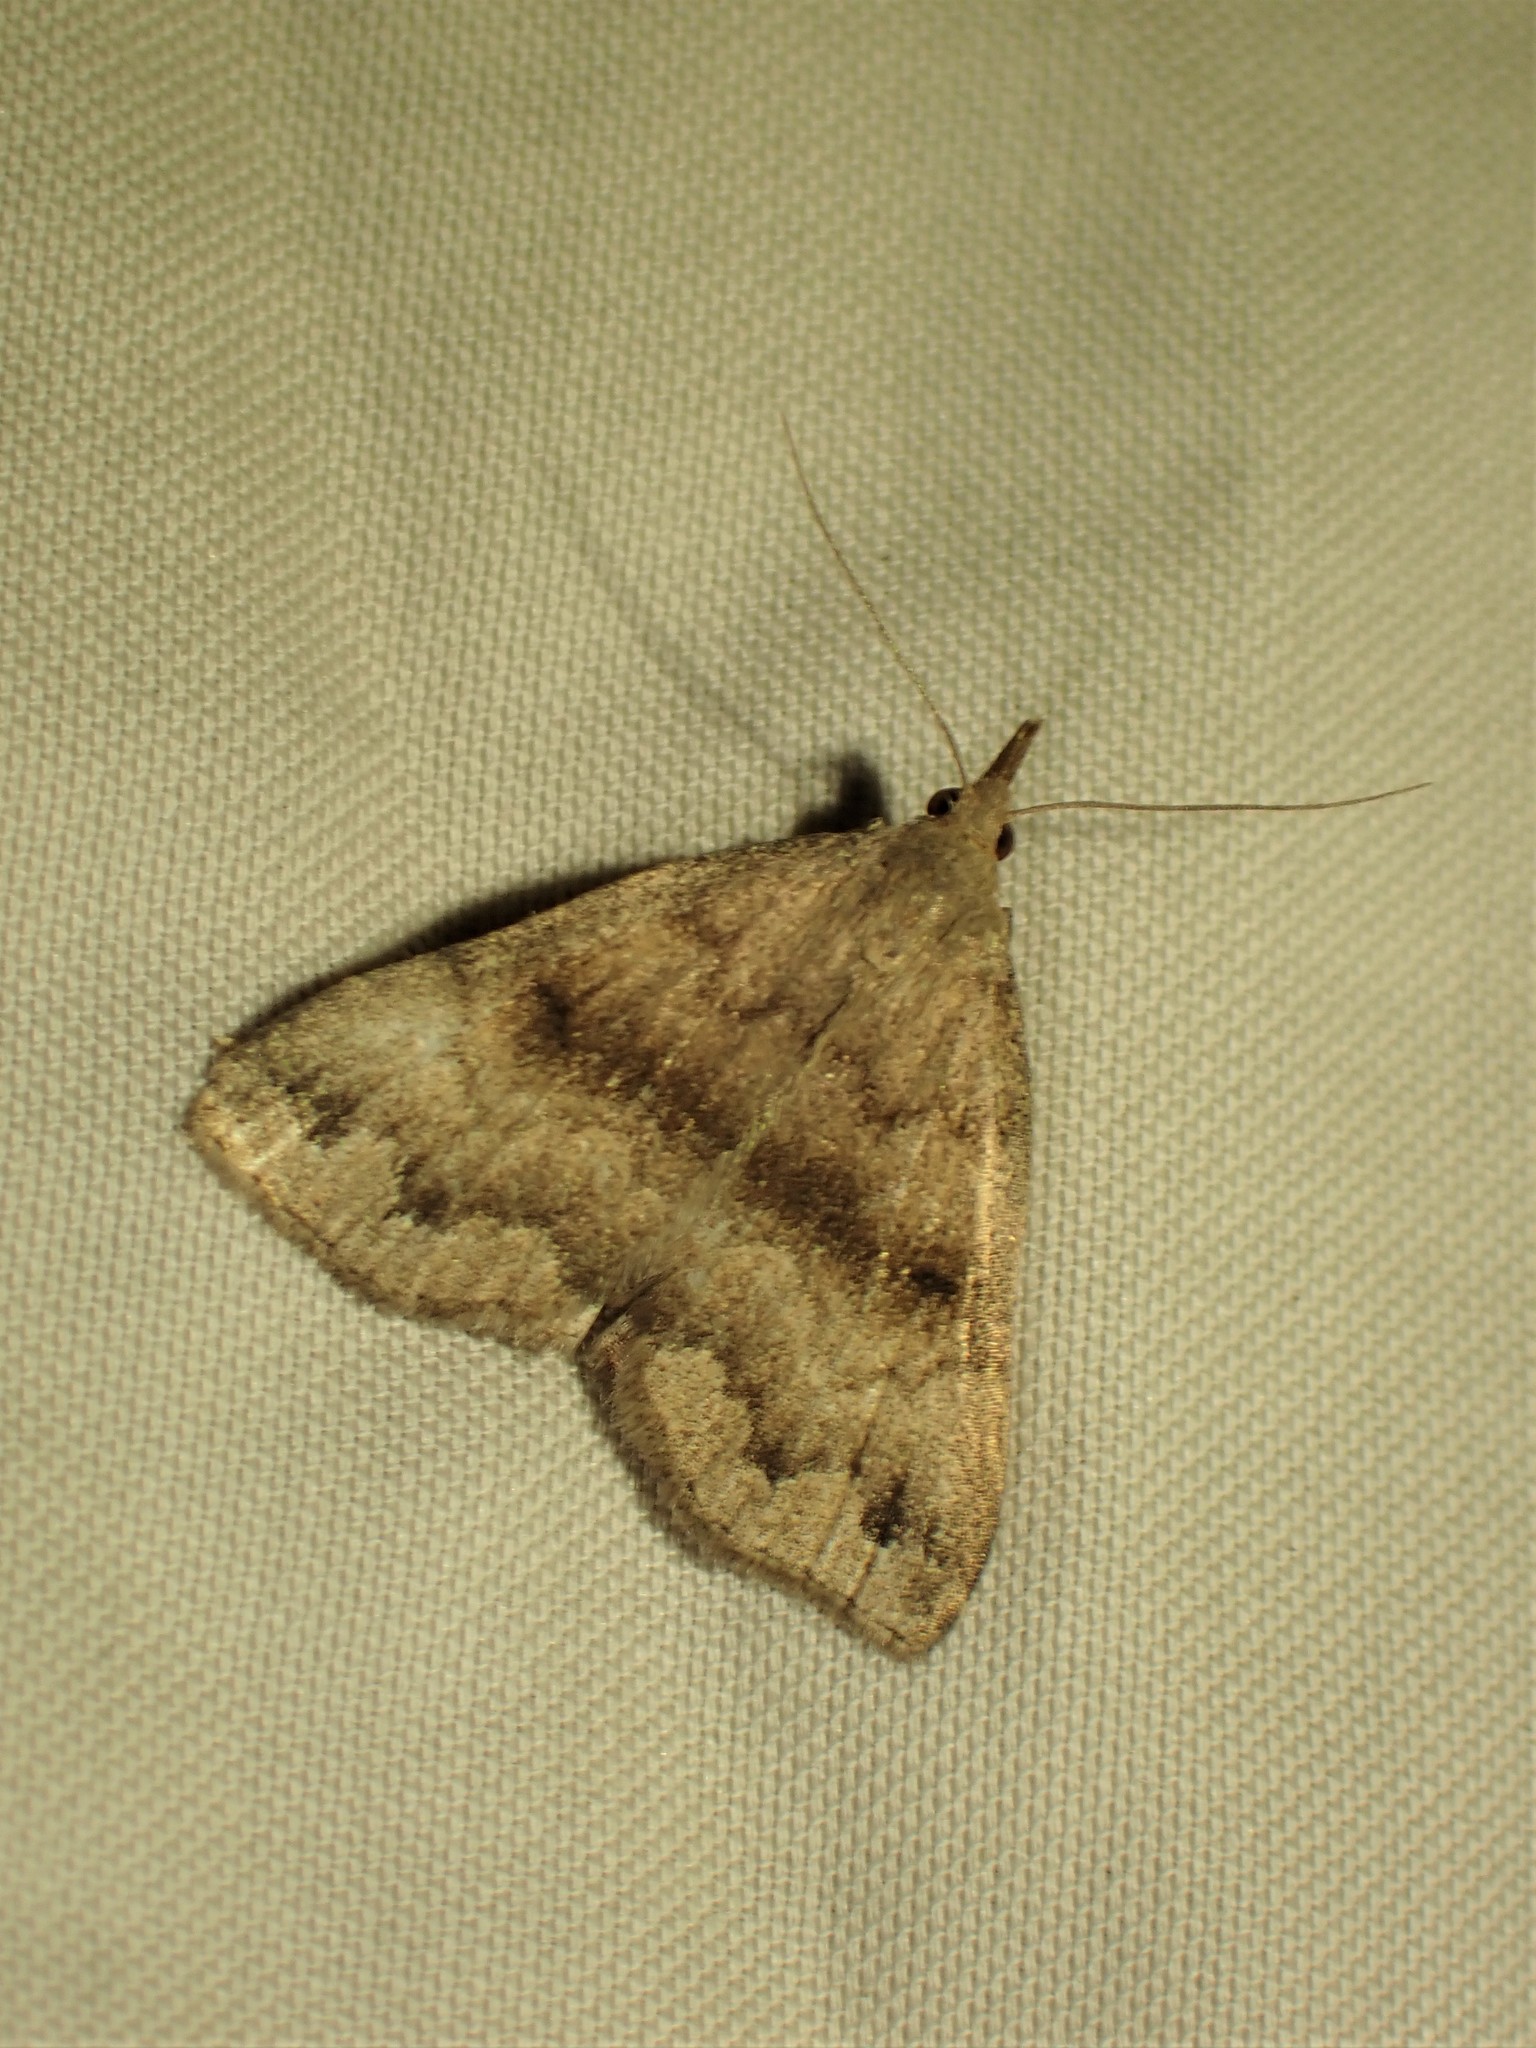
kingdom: Animalia
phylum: Arthropoda
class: Insecta
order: Lepidoptera
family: Erebidae
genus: Phalaenostola
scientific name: Phalaenostola eumelusalis
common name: Dark phalaenostola moth
